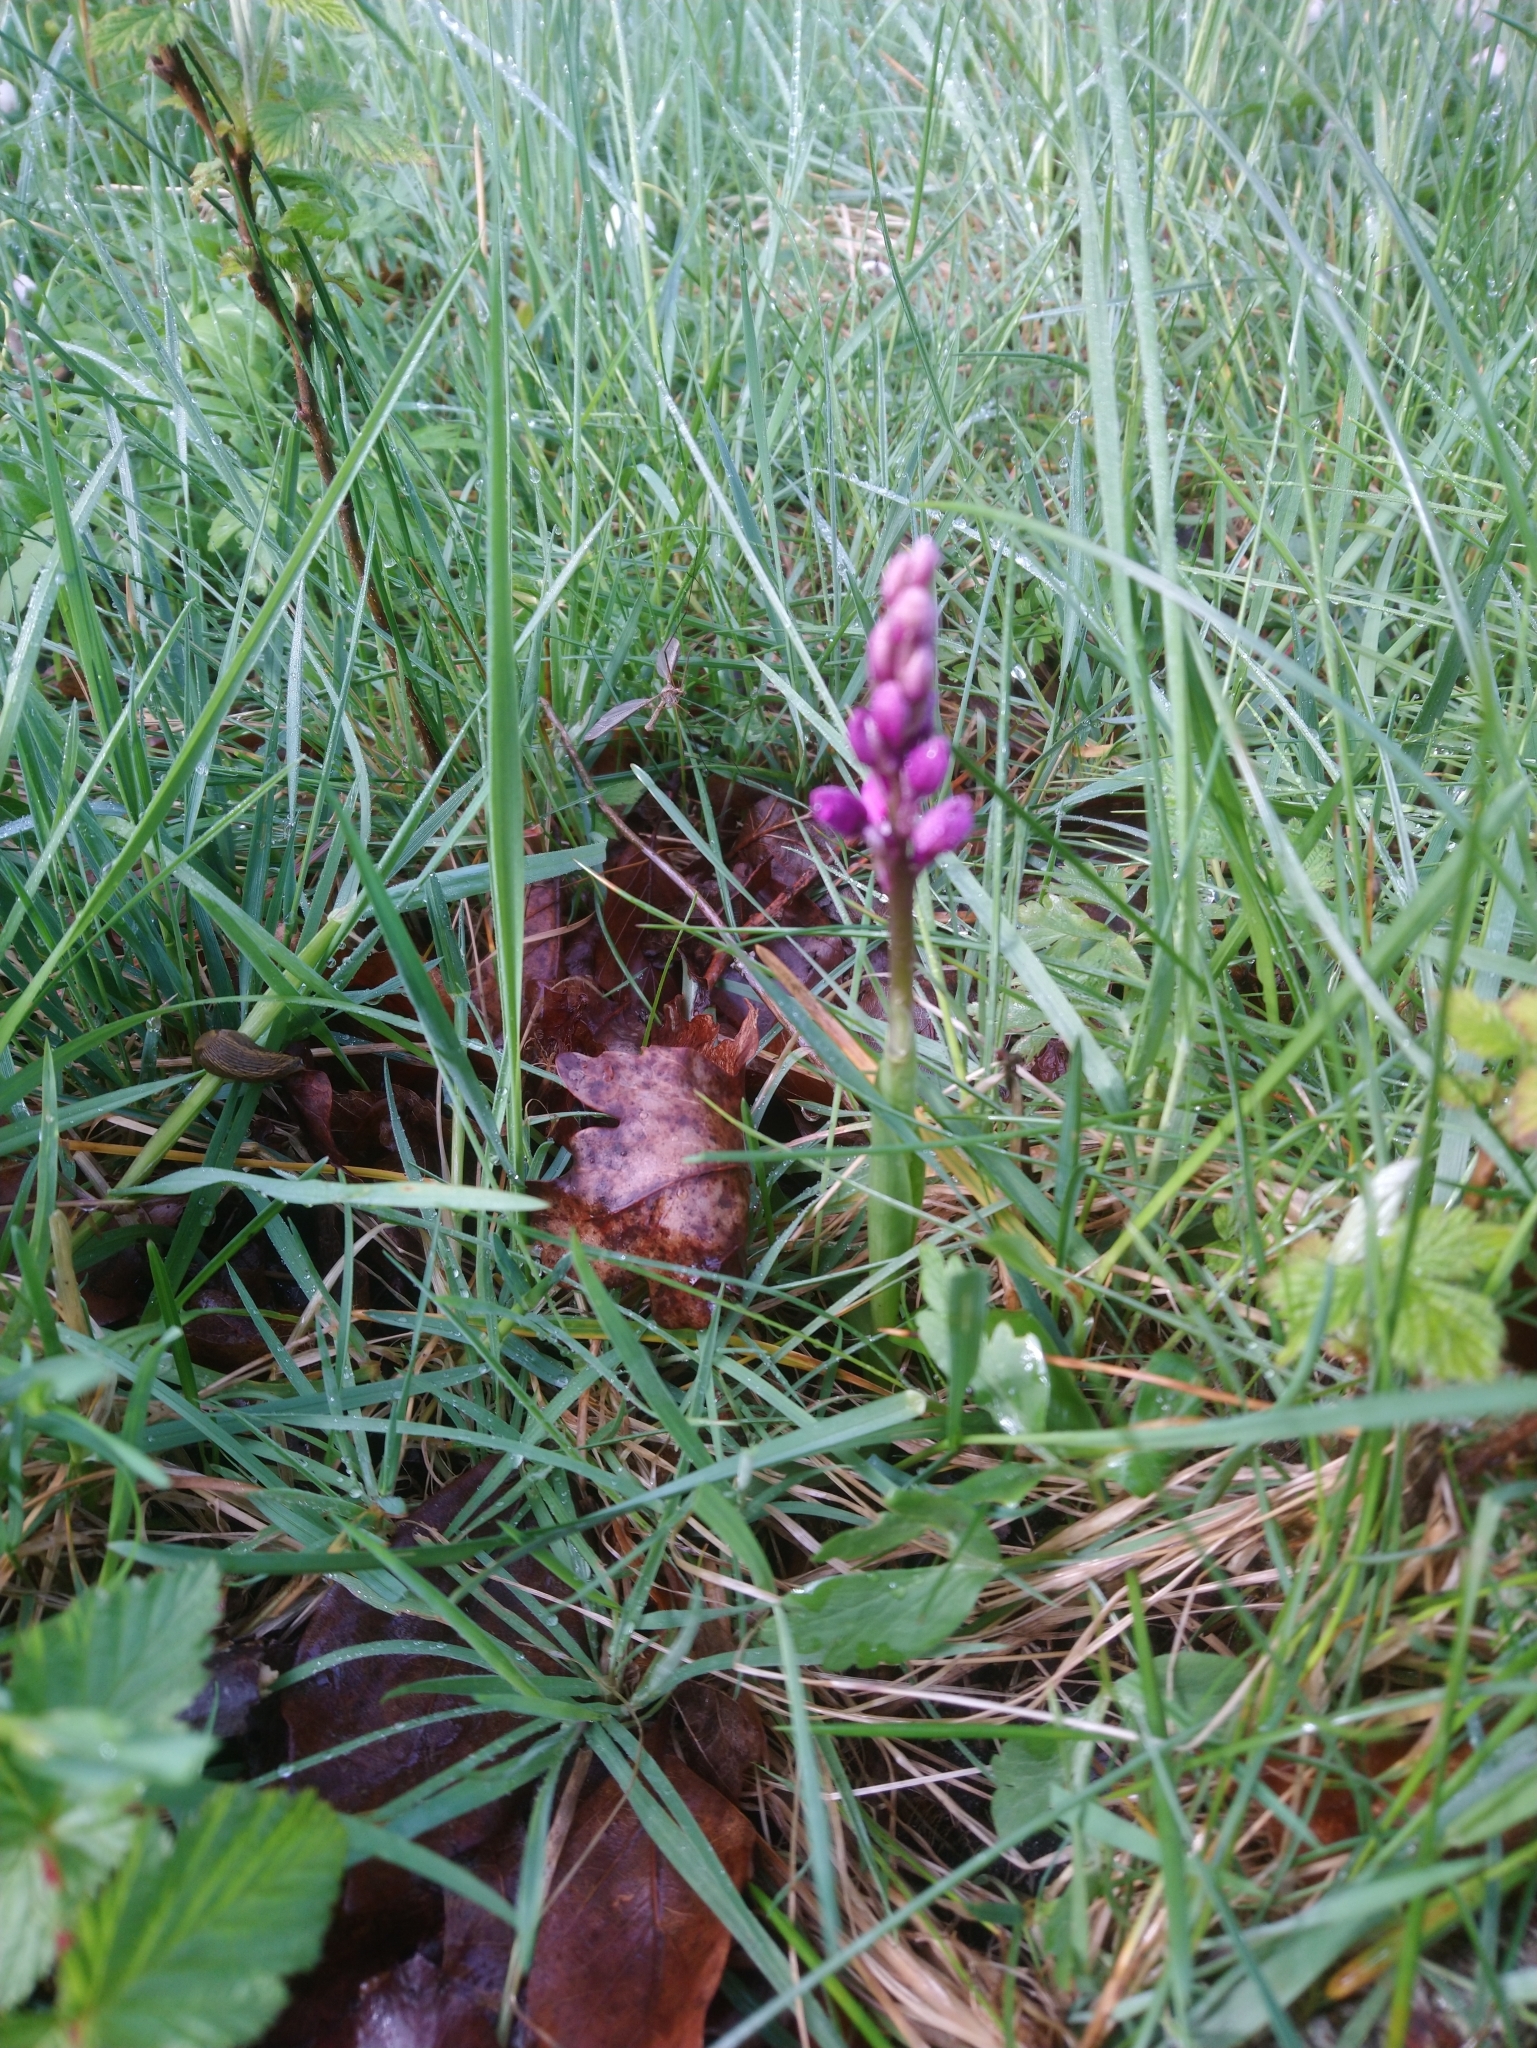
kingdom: Plantae
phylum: Tracheophyta
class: Liliopsida
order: Asparagales
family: Orchidaceae
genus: Orchis
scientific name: Orchis mascula
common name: Early-purple orchid
